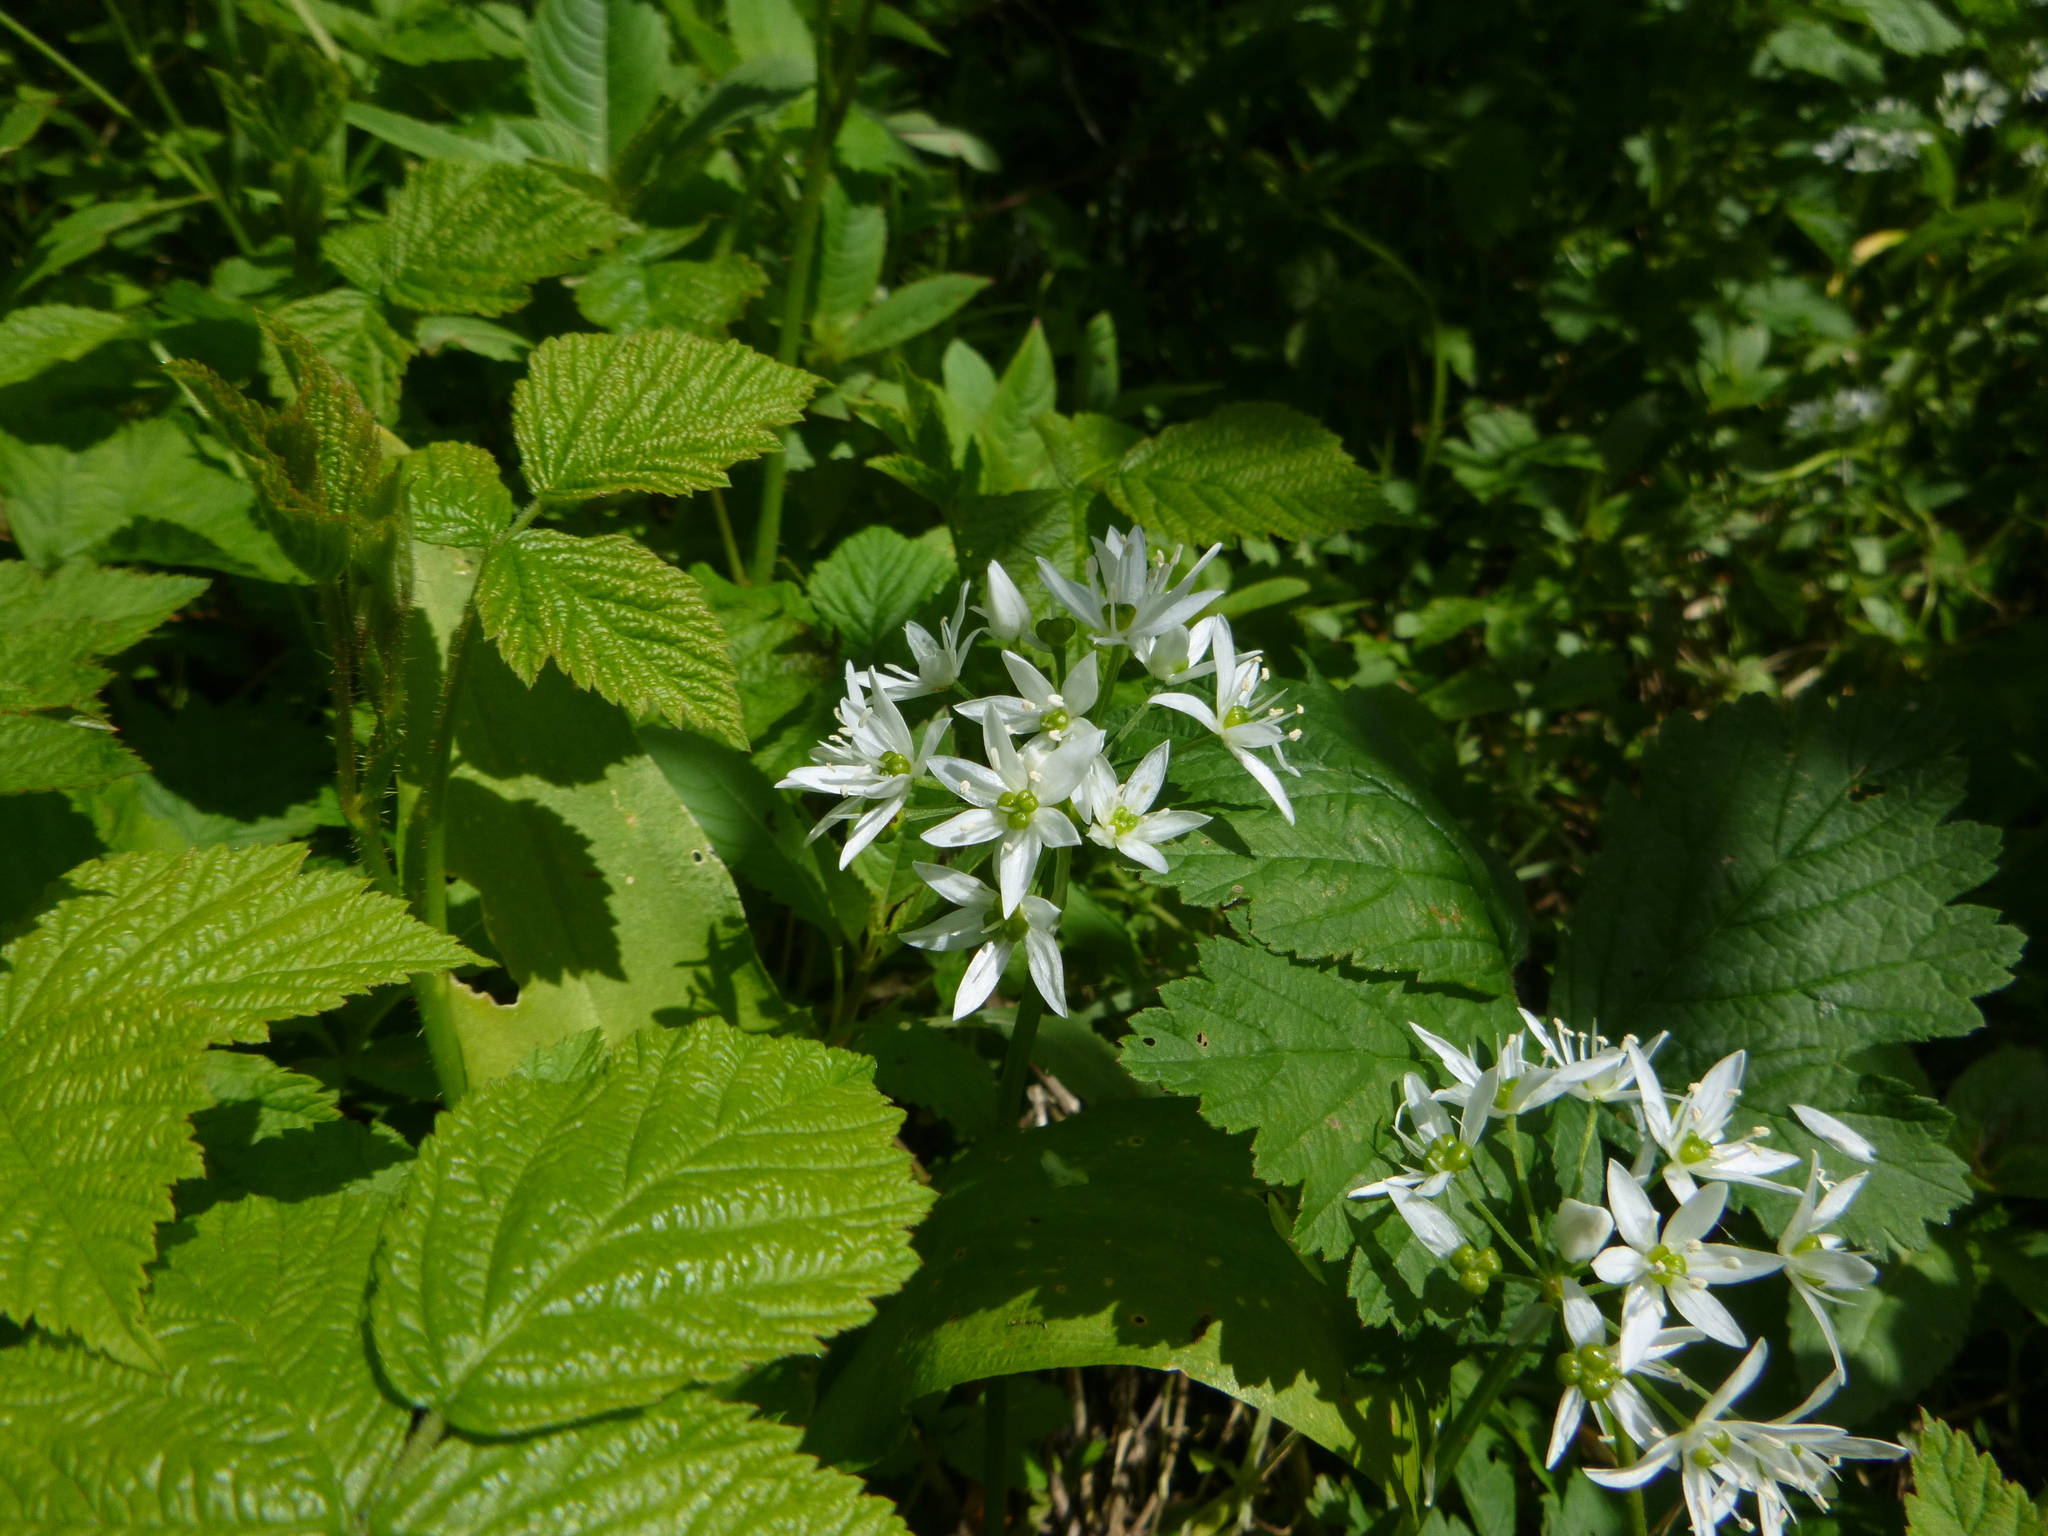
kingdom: Plantae
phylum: Tracheophyta
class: Liliopsida
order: Asparagales
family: Amaryllidaceae
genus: Allium
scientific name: Allium ursinum
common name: Ramsons
